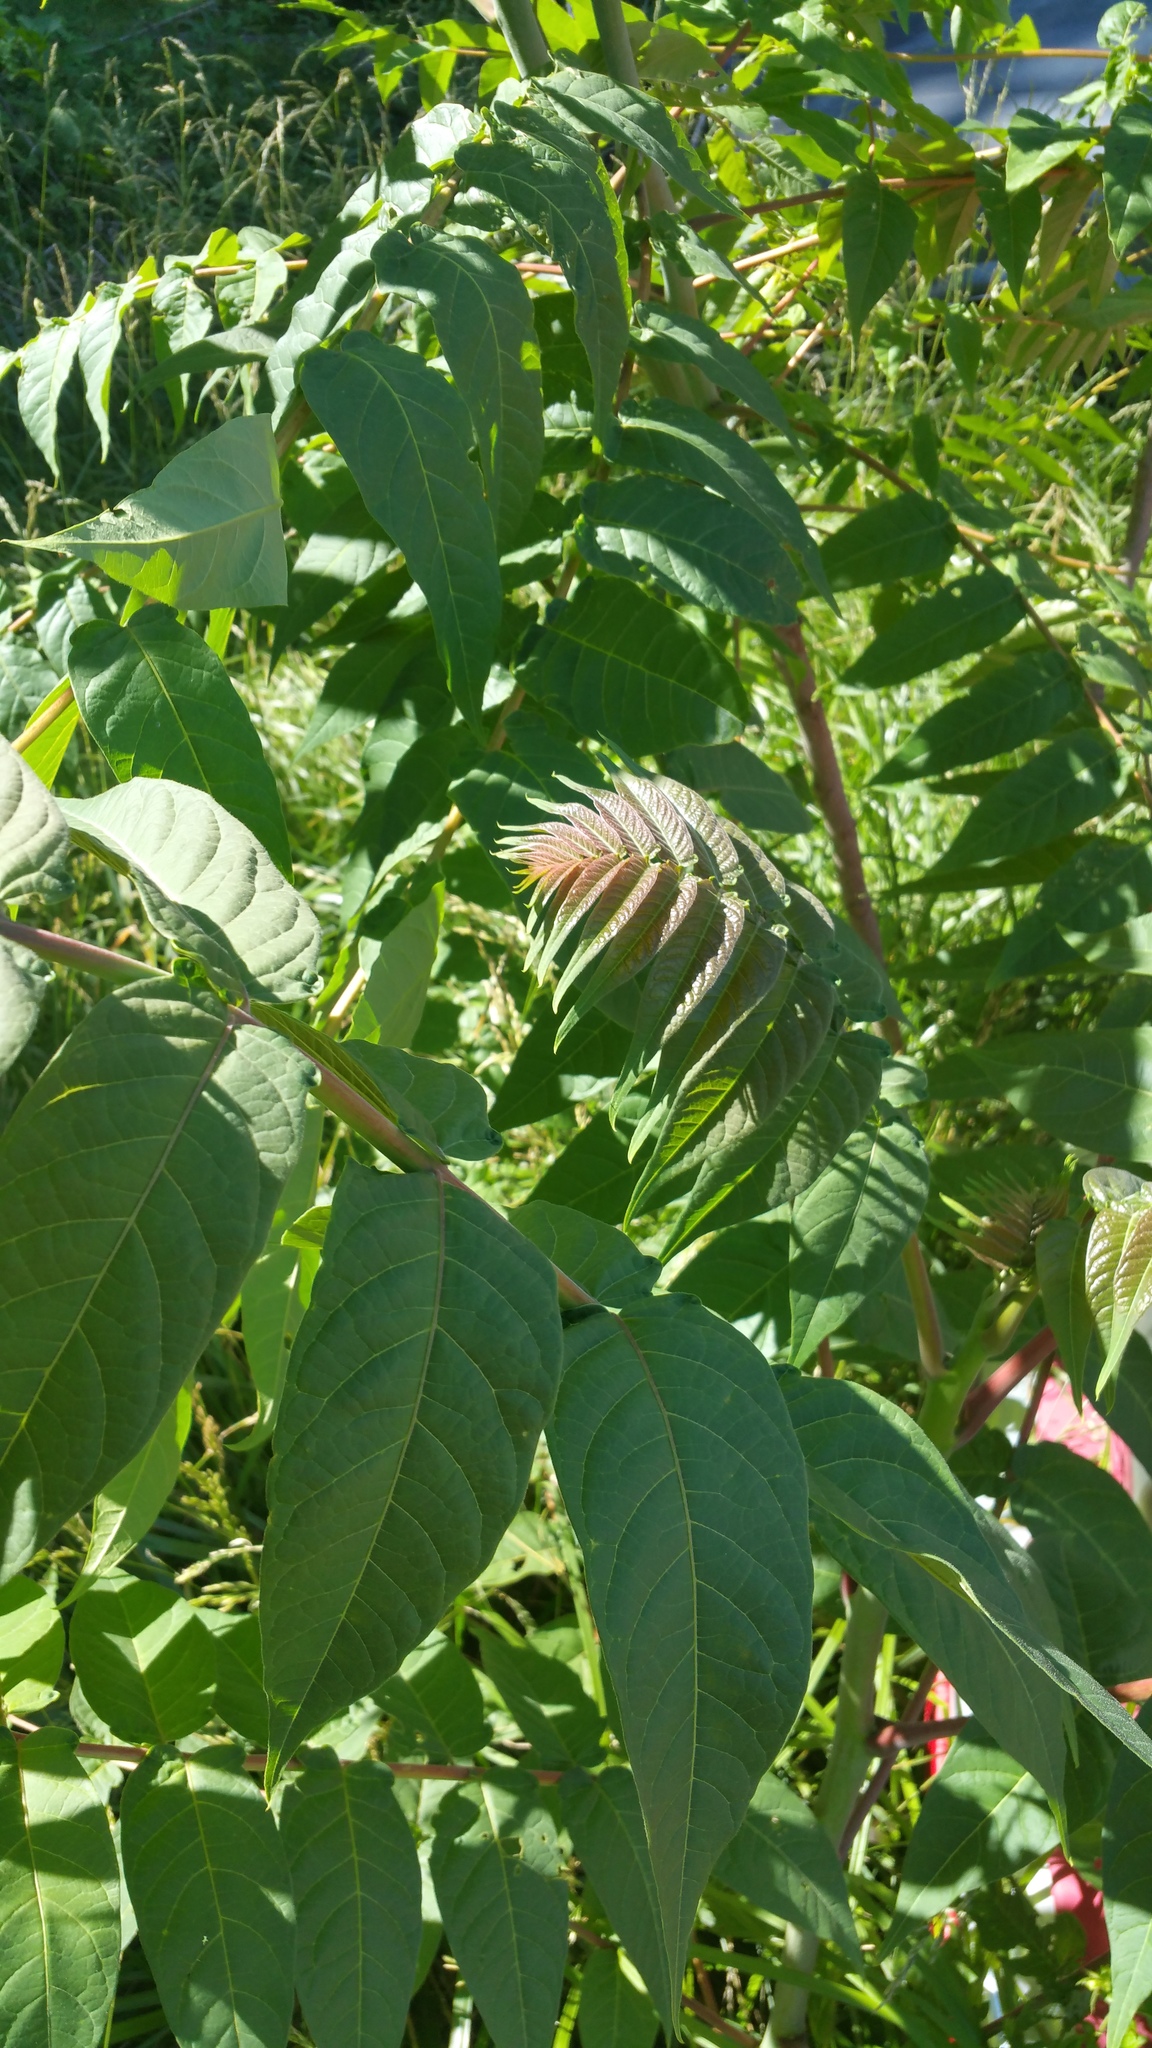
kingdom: Plantae
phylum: Tracheophyta
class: Magnoliopsida
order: Sapindales
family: Simaroubaceae
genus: Ailanthus
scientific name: Ailanthus altissima
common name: Tree-of-heaven
